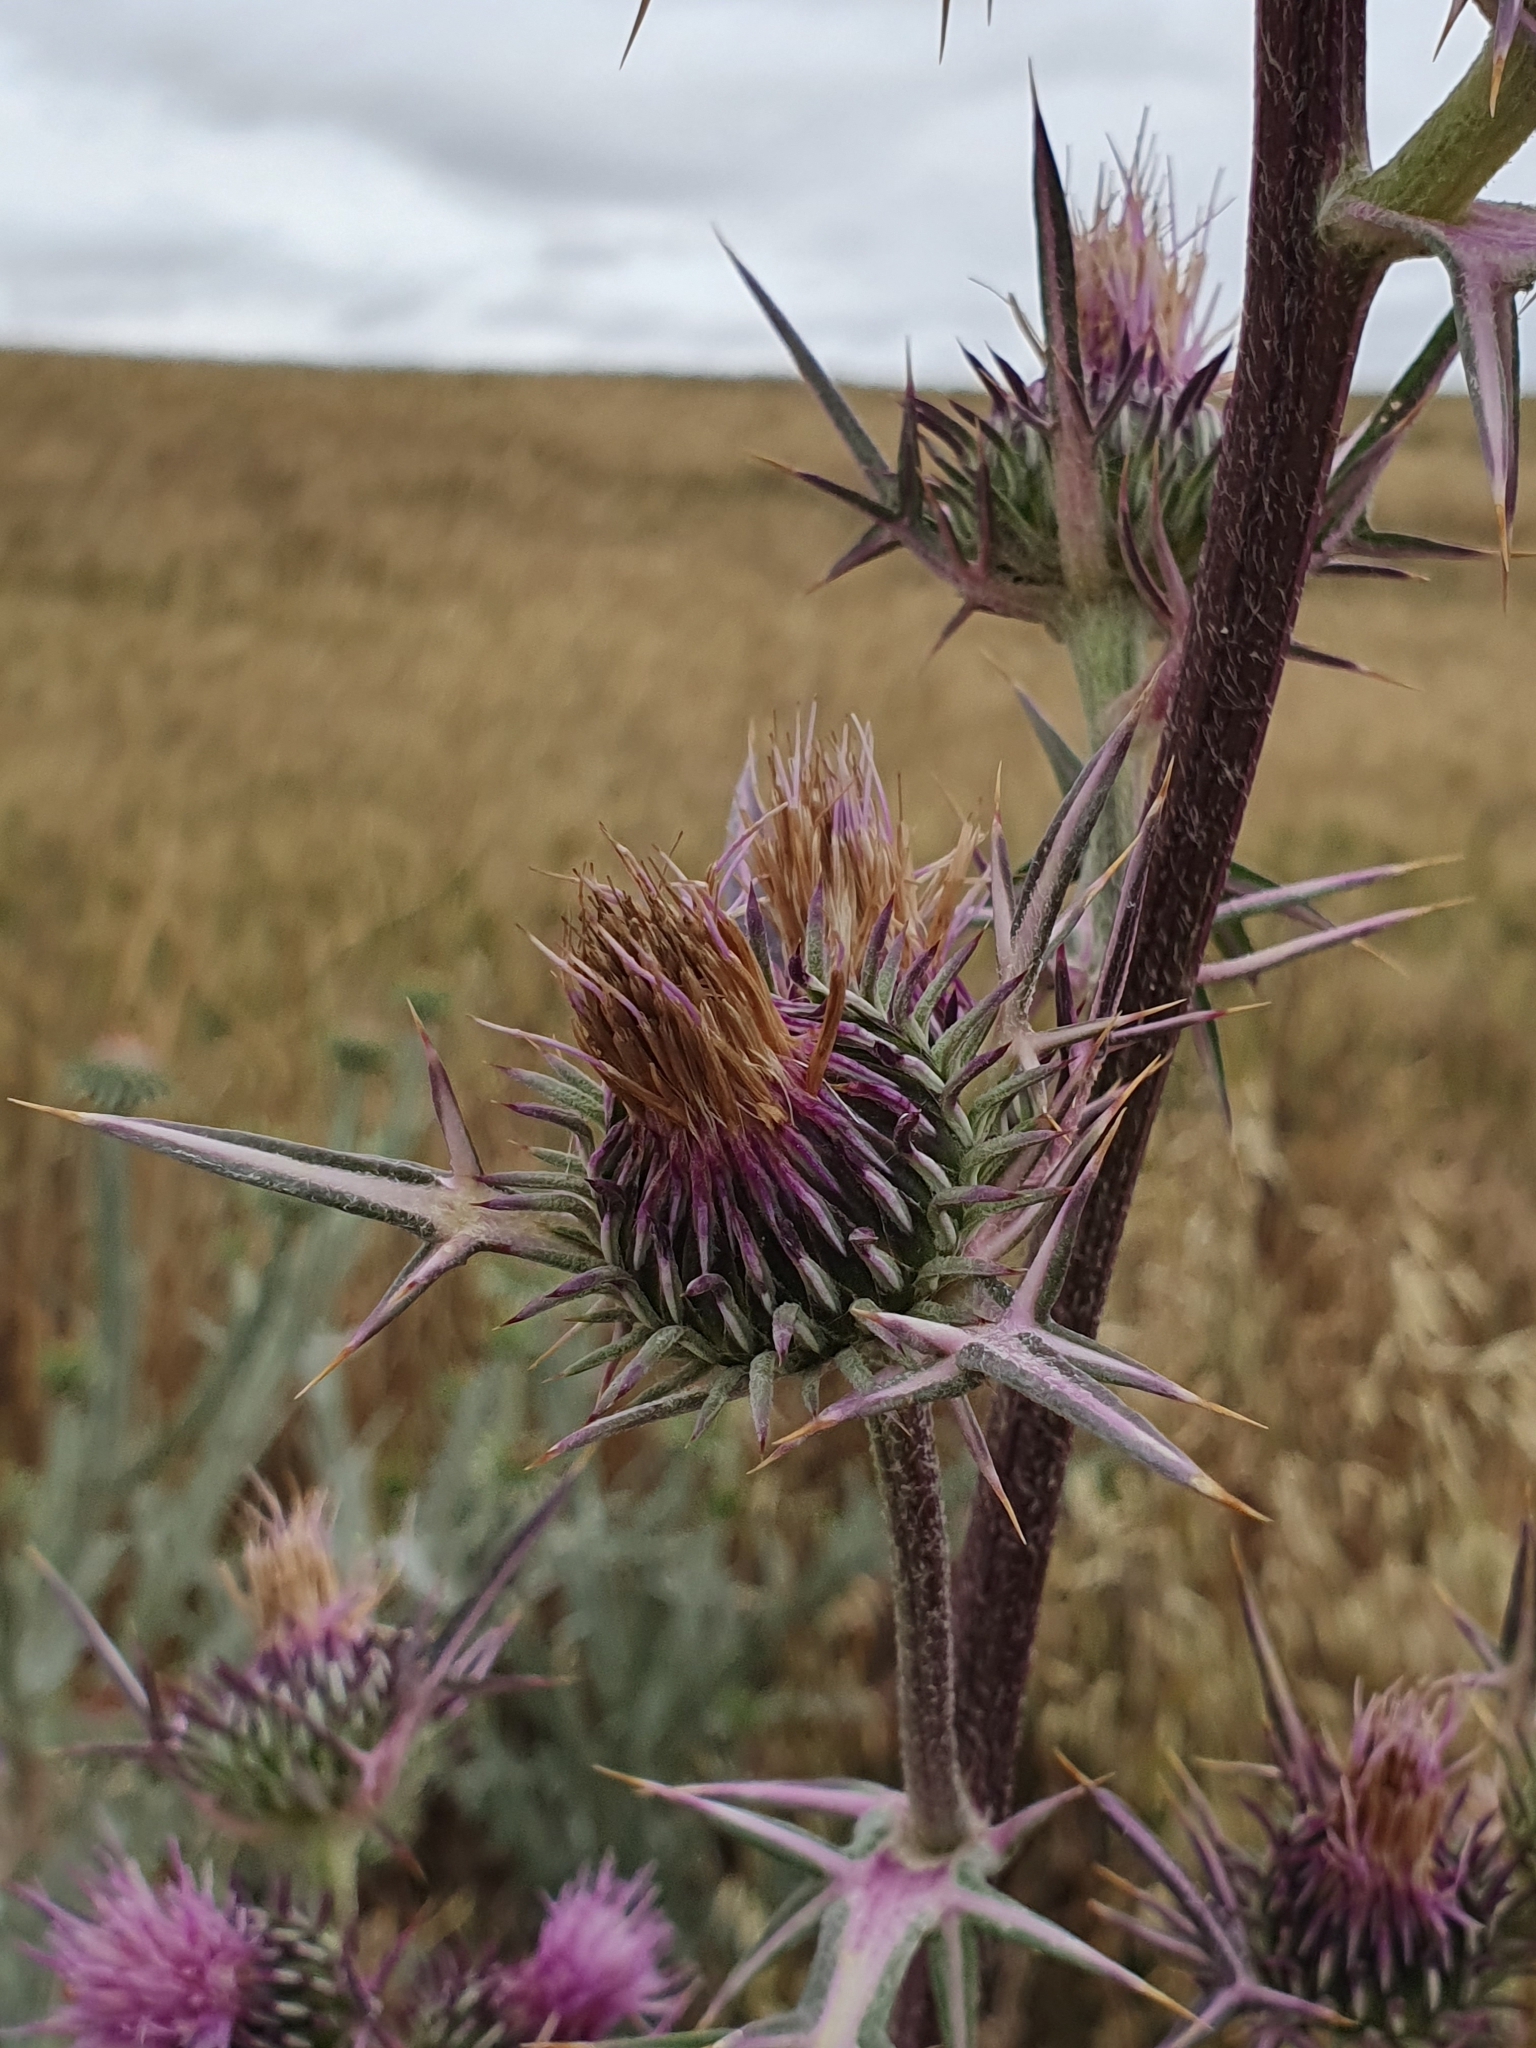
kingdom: Plantae
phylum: Tracheophyta
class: Magnoliopsida
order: Asterales
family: Asteraceae
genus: Notobasis
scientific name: Notobasis syriaca
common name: Syrian thistle
